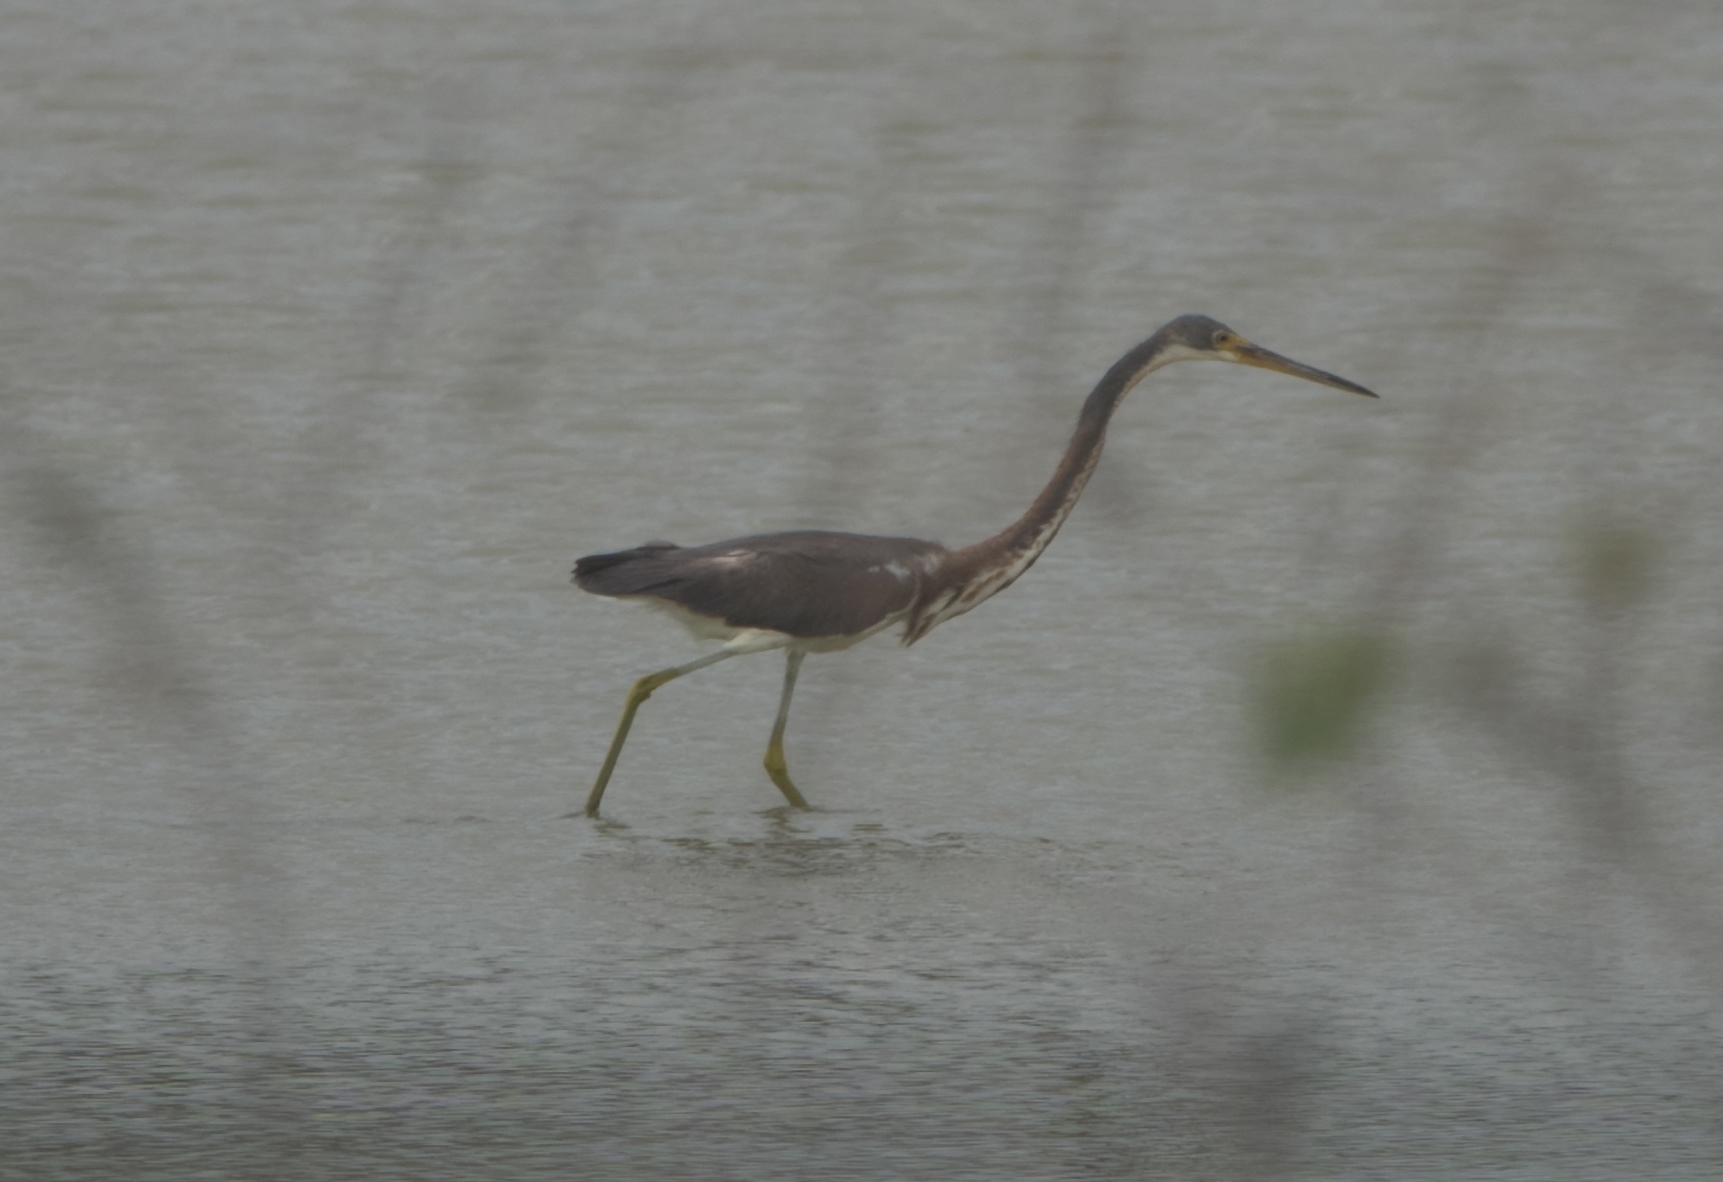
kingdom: Animalia
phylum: Chordata
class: Aves
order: Pelecaniformes
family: Ardeidae
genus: Egretta
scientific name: Egretta tricolor
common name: Tricolored heron
